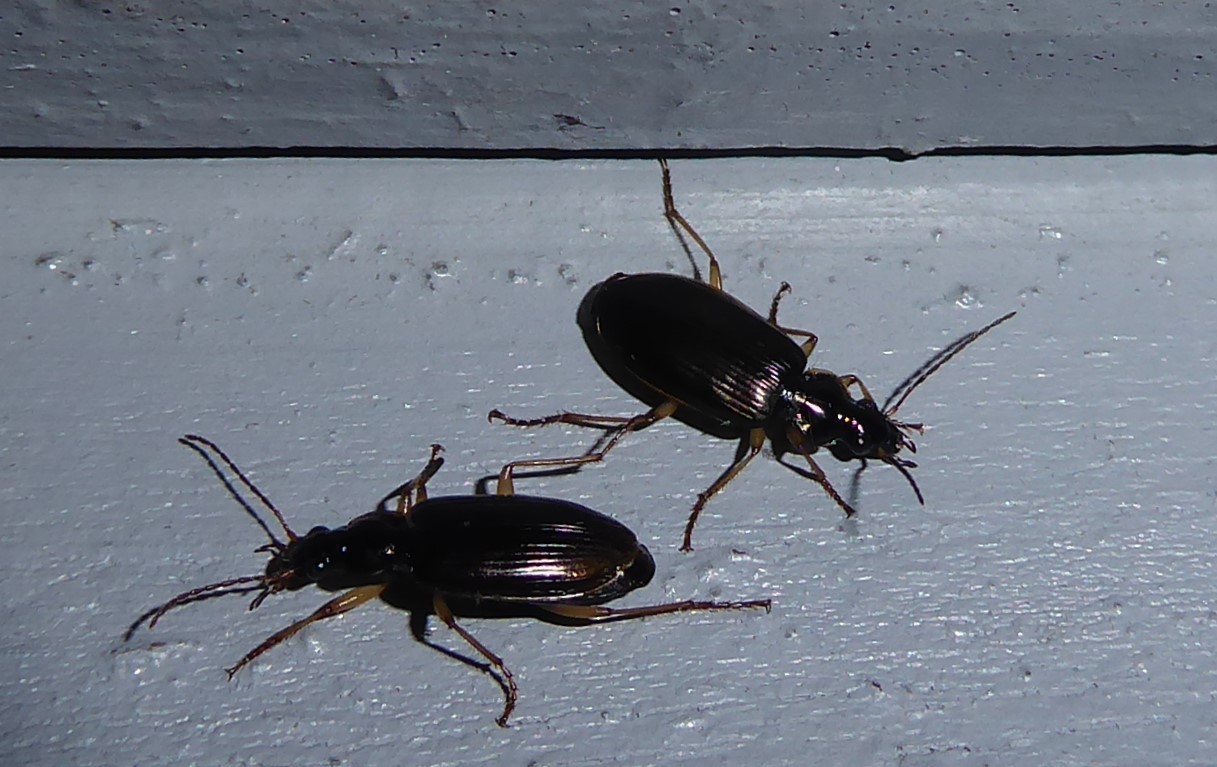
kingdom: Animalia
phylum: Arthropoda
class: Insecta
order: Coleoptera
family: Carabidae
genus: Notagonum
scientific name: Notagonum submetallicum
